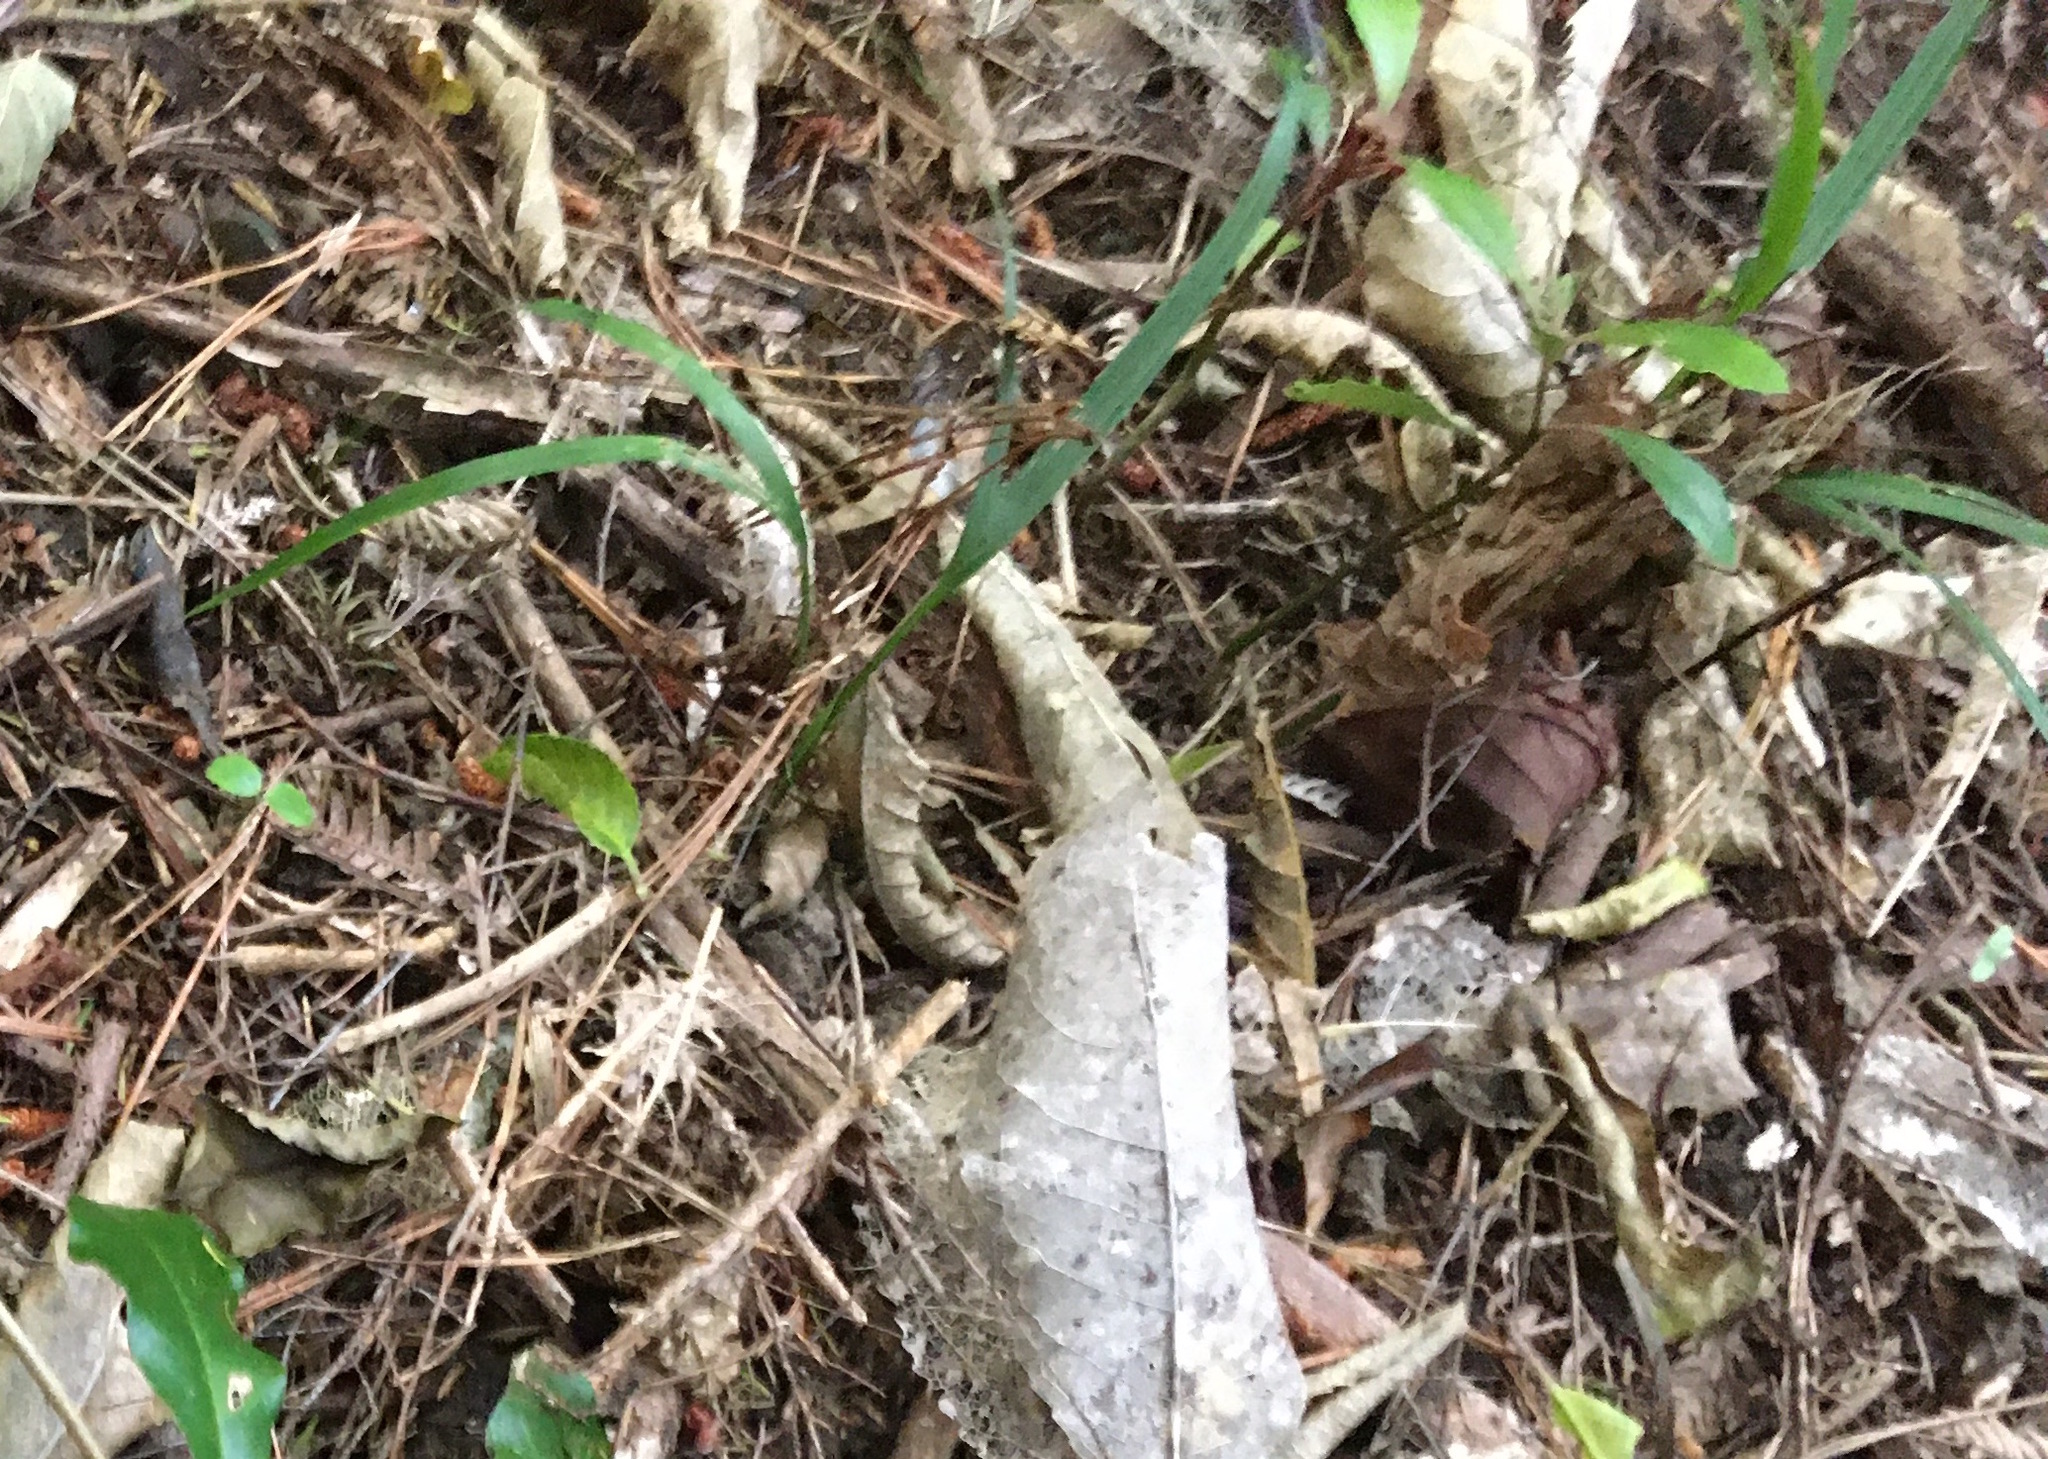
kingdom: Plantae
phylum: Tracheophyta
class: Liliopsida
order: Arecales
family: Arecaceae
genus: Rhopalostylis
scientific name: Rhopalostylis sapida
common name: Feather-duster palm
